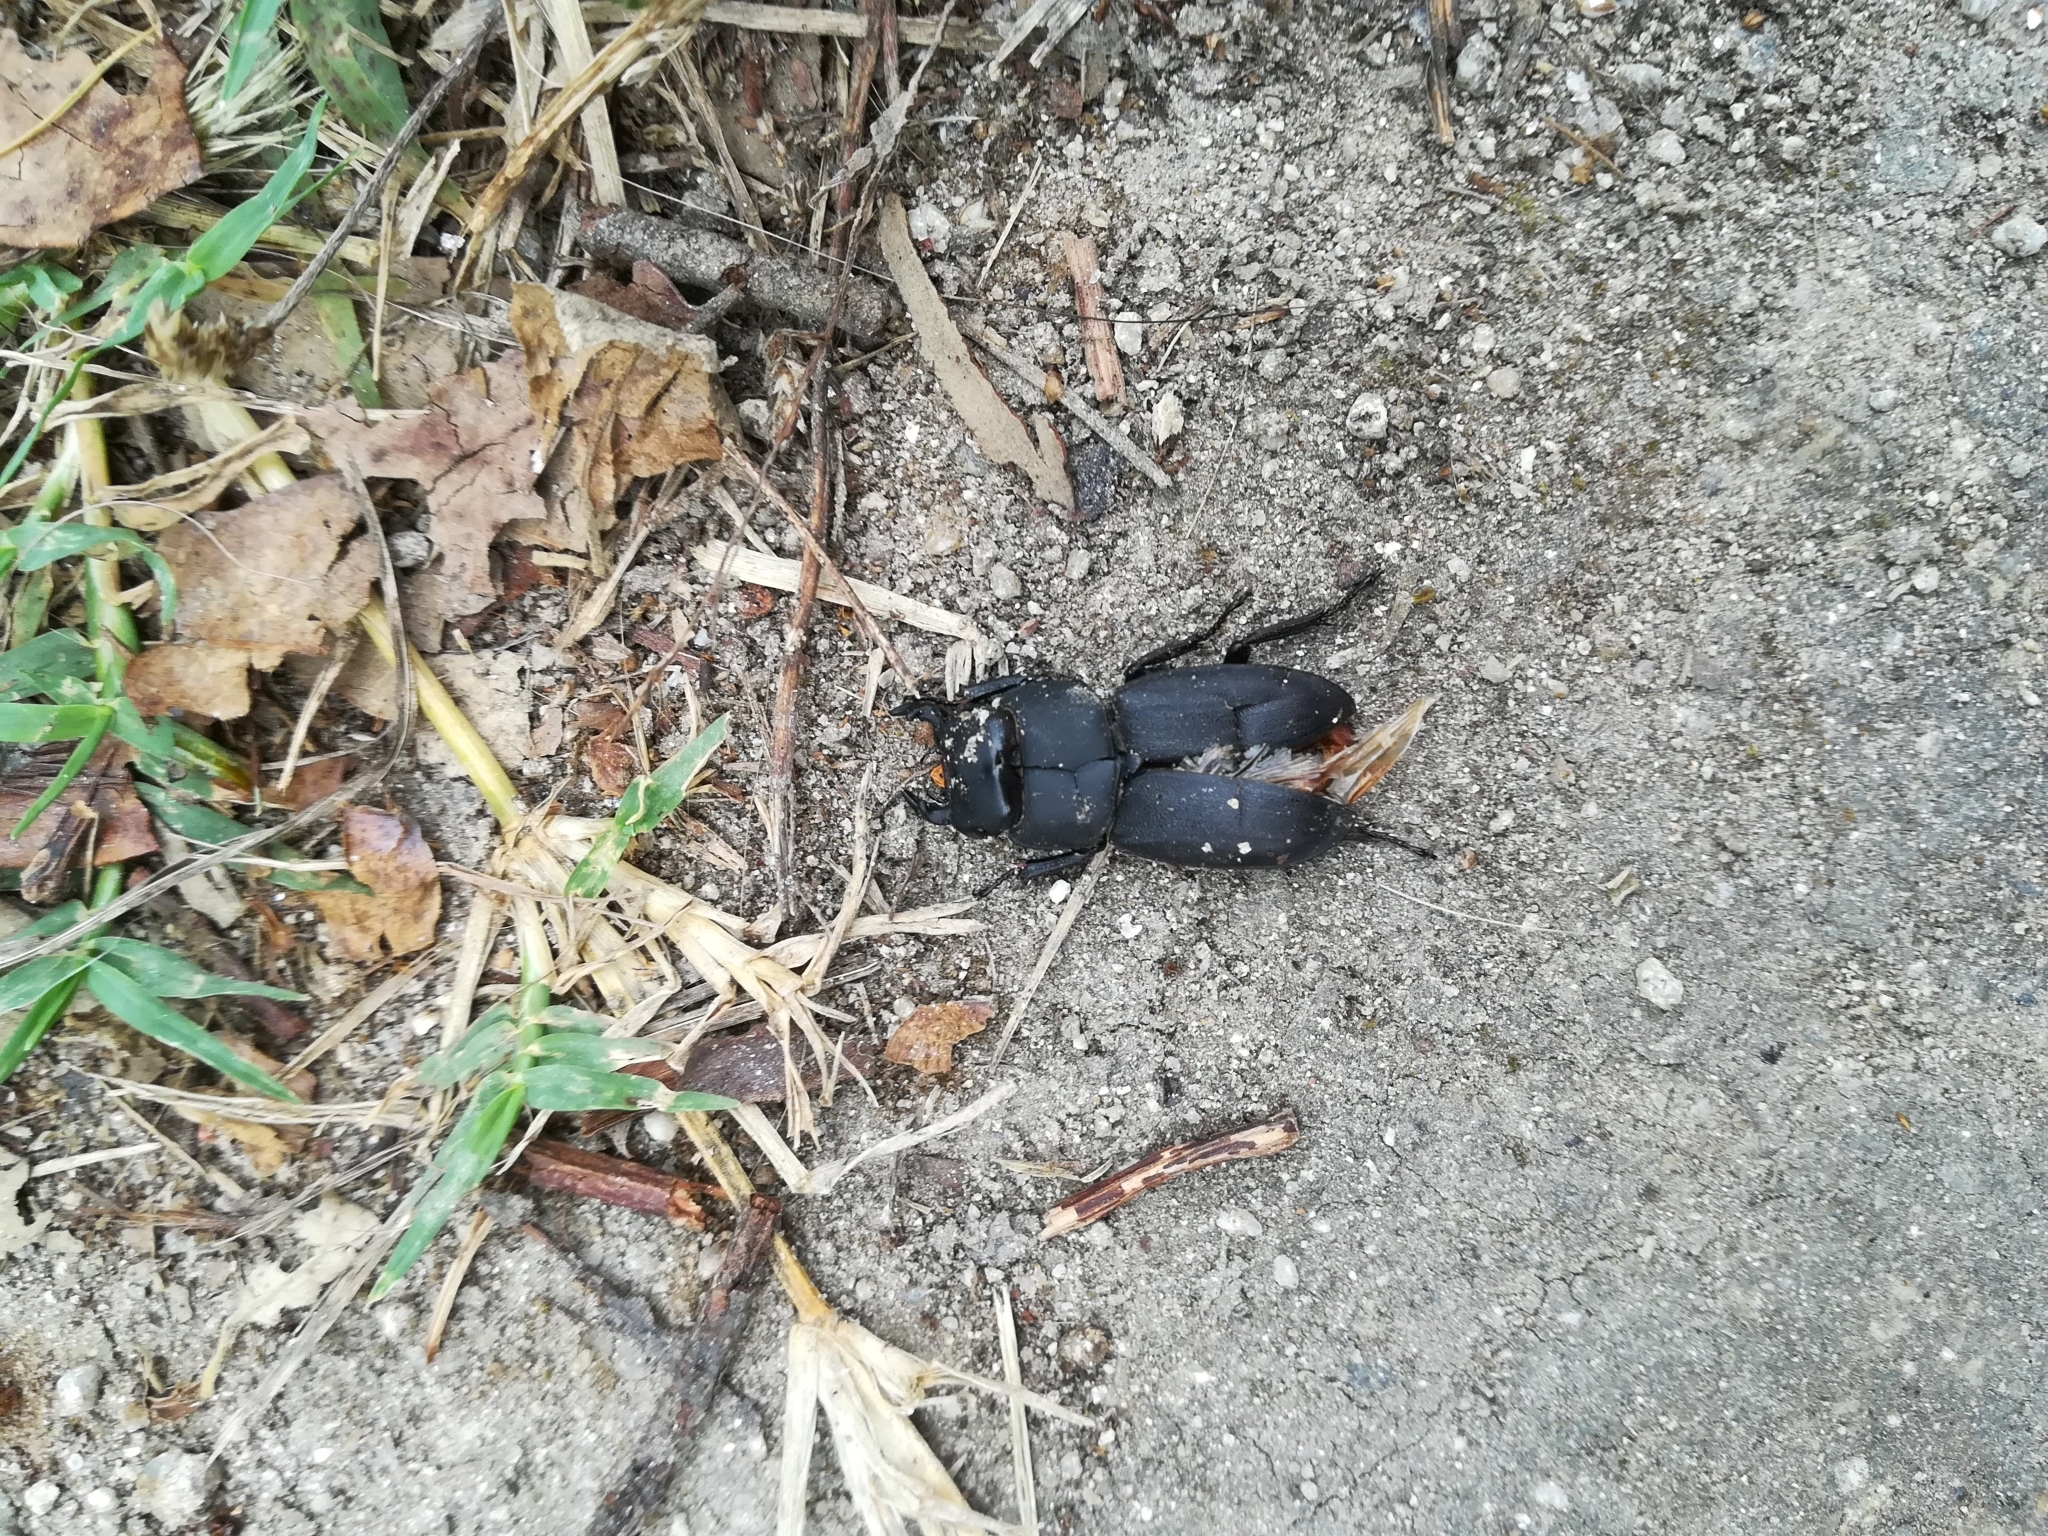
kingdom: Animalia
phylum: Arthropoda
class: Insecta
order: Coleoptera
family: Lucanidae
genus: Dorcus
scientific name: Dorcus parallelipipedus
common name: Lesser stag beetle
